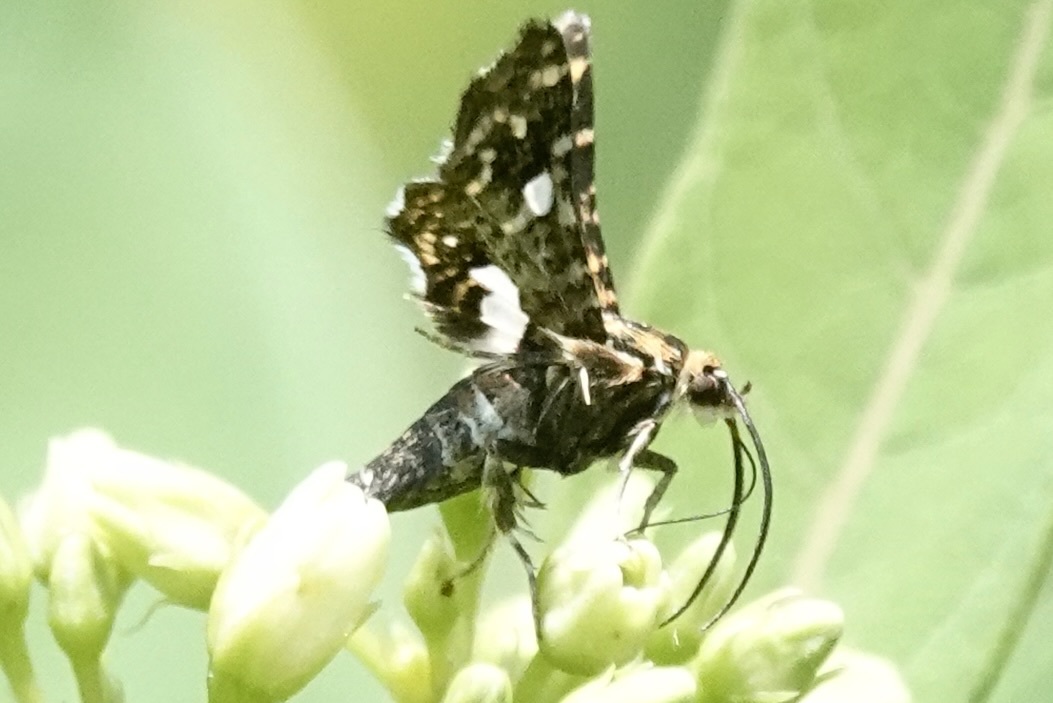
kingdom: Animalia
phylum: Arthropoda
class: Insecta
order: Lepidoptera
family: Thyrididae
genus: Thyris
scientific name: Thyris maculata
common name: Spotted thyris moth
